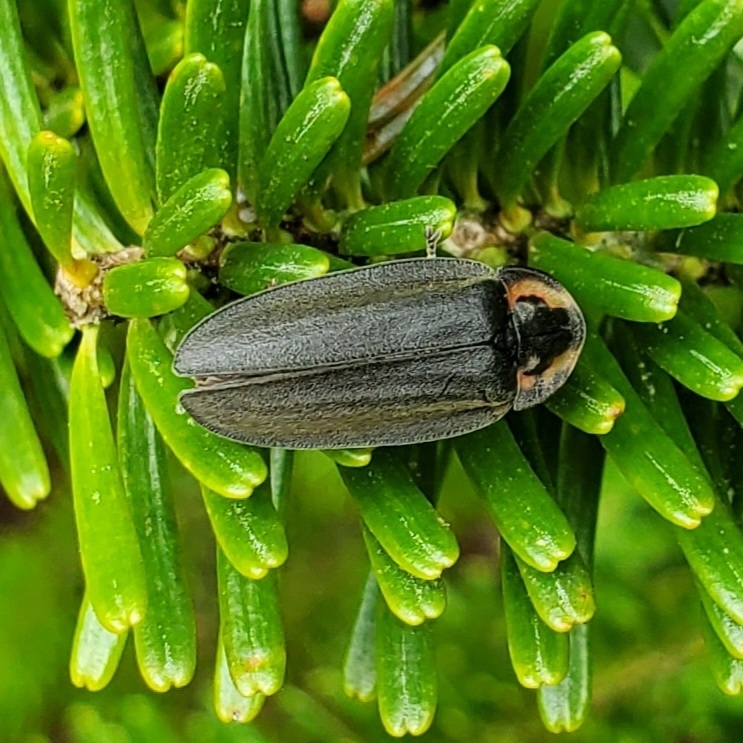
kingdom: Animalia
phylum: Arthropoda
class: Insecta
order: Coleoptera
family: Lampyridae
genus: Photinus
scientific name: Photinus corrusca
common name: Winter firefly
